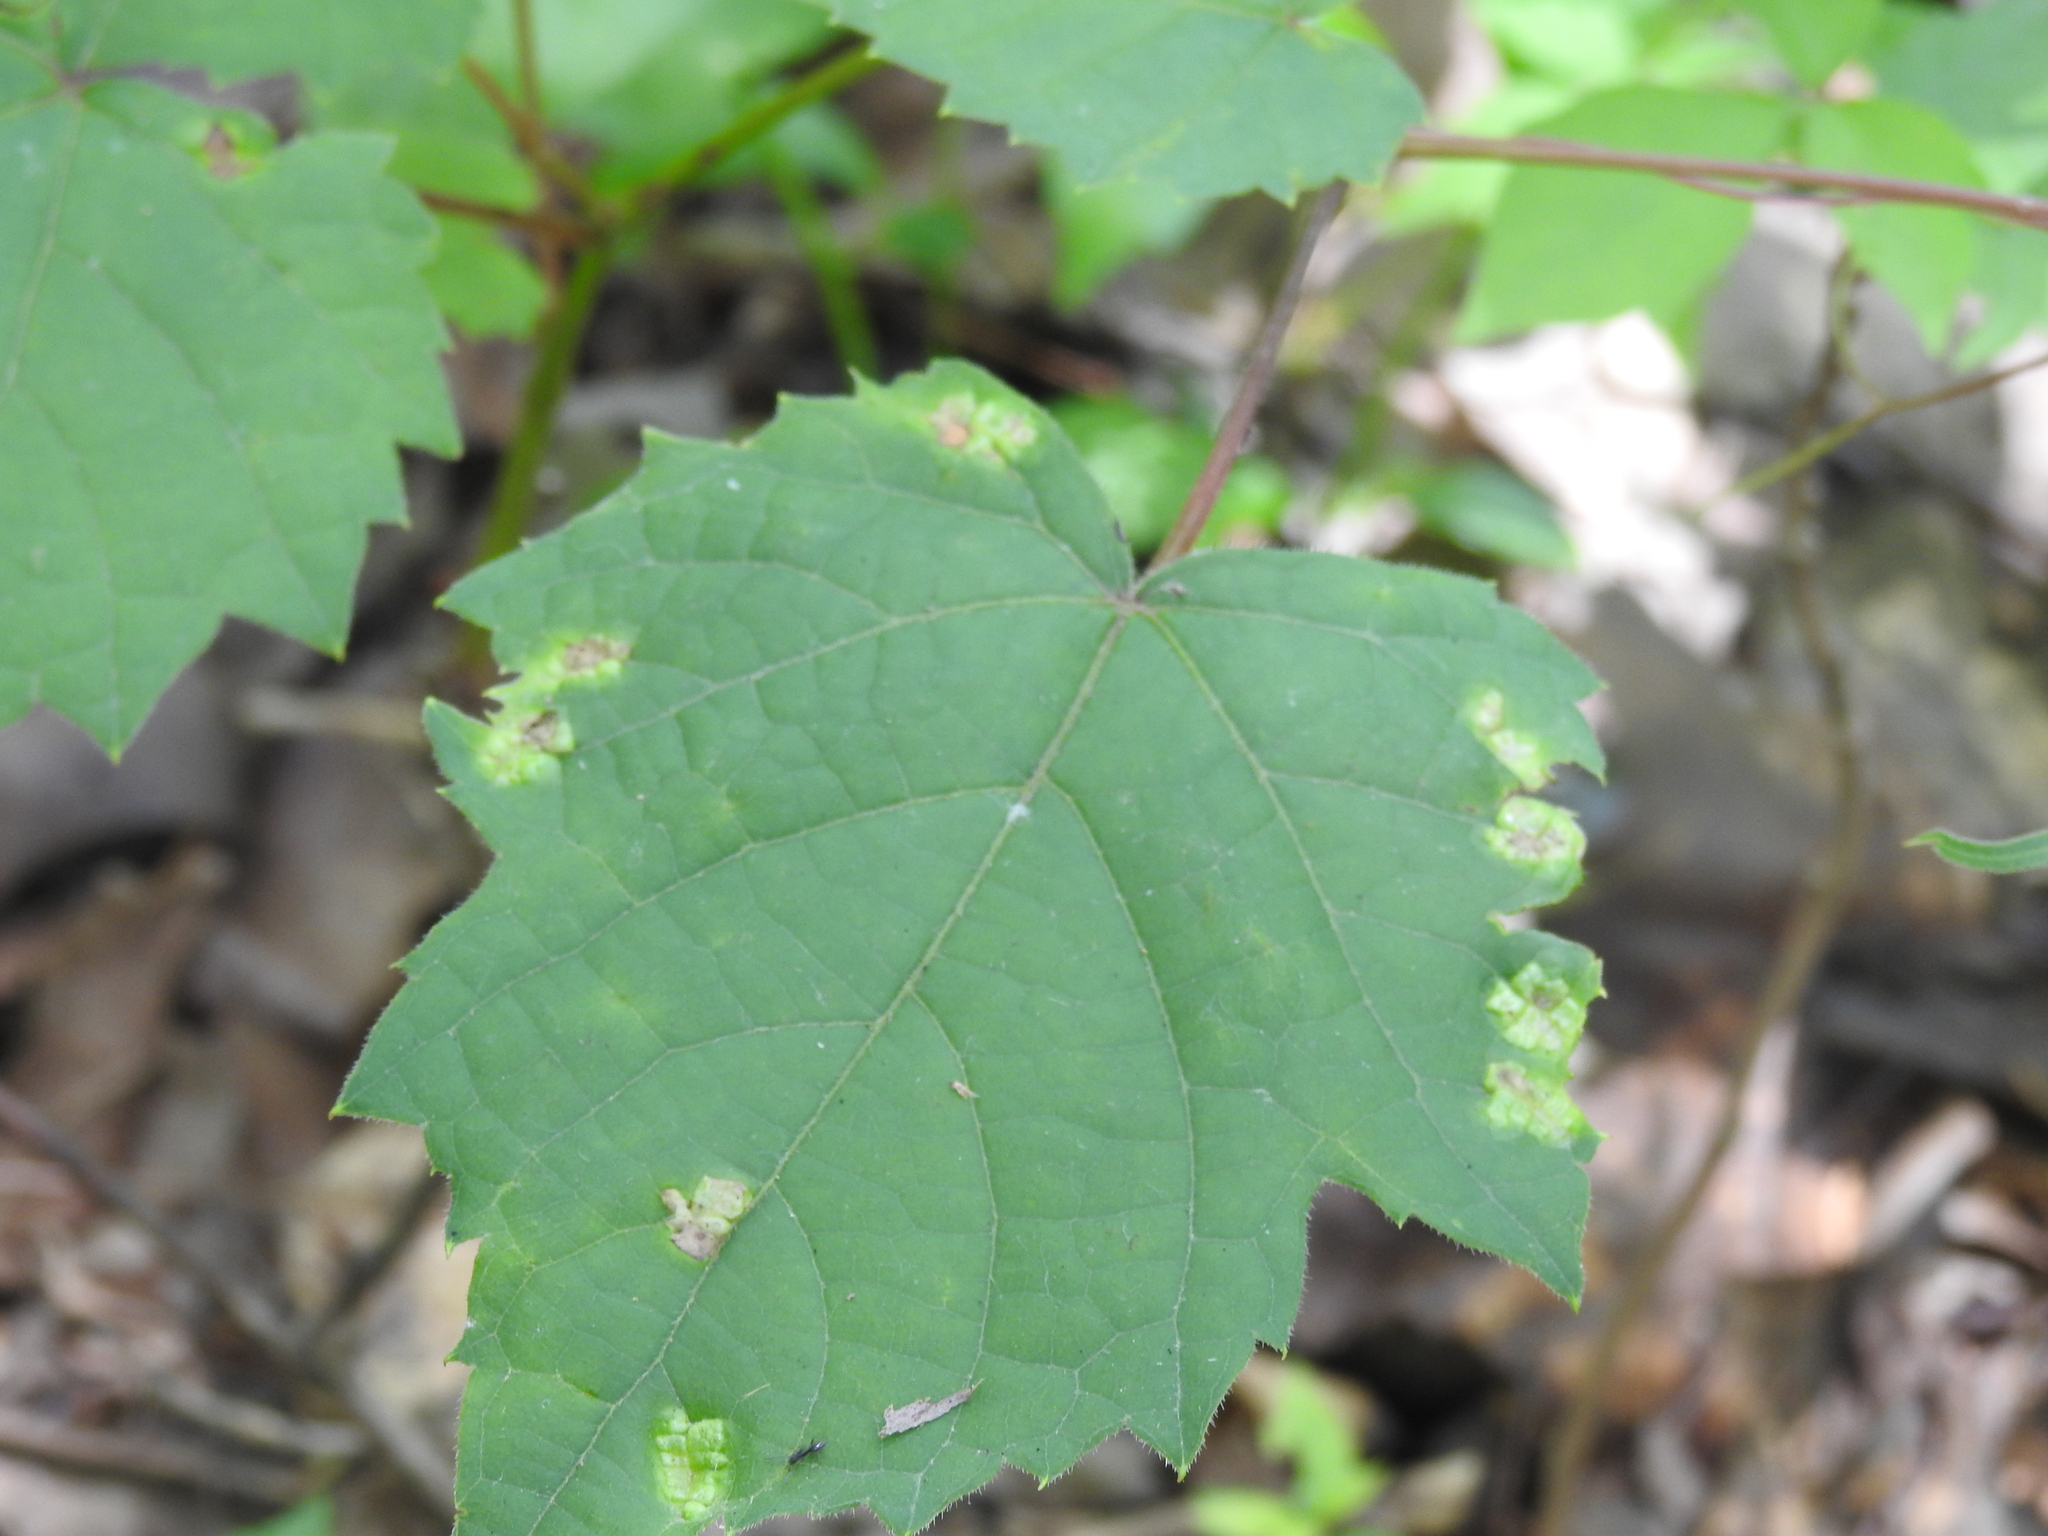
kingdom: Animalia
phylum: Arthropoda
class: Insecta
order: Lepidoptera
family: Heliozelidae
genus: Heliozela
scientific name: Heliozela aesella
